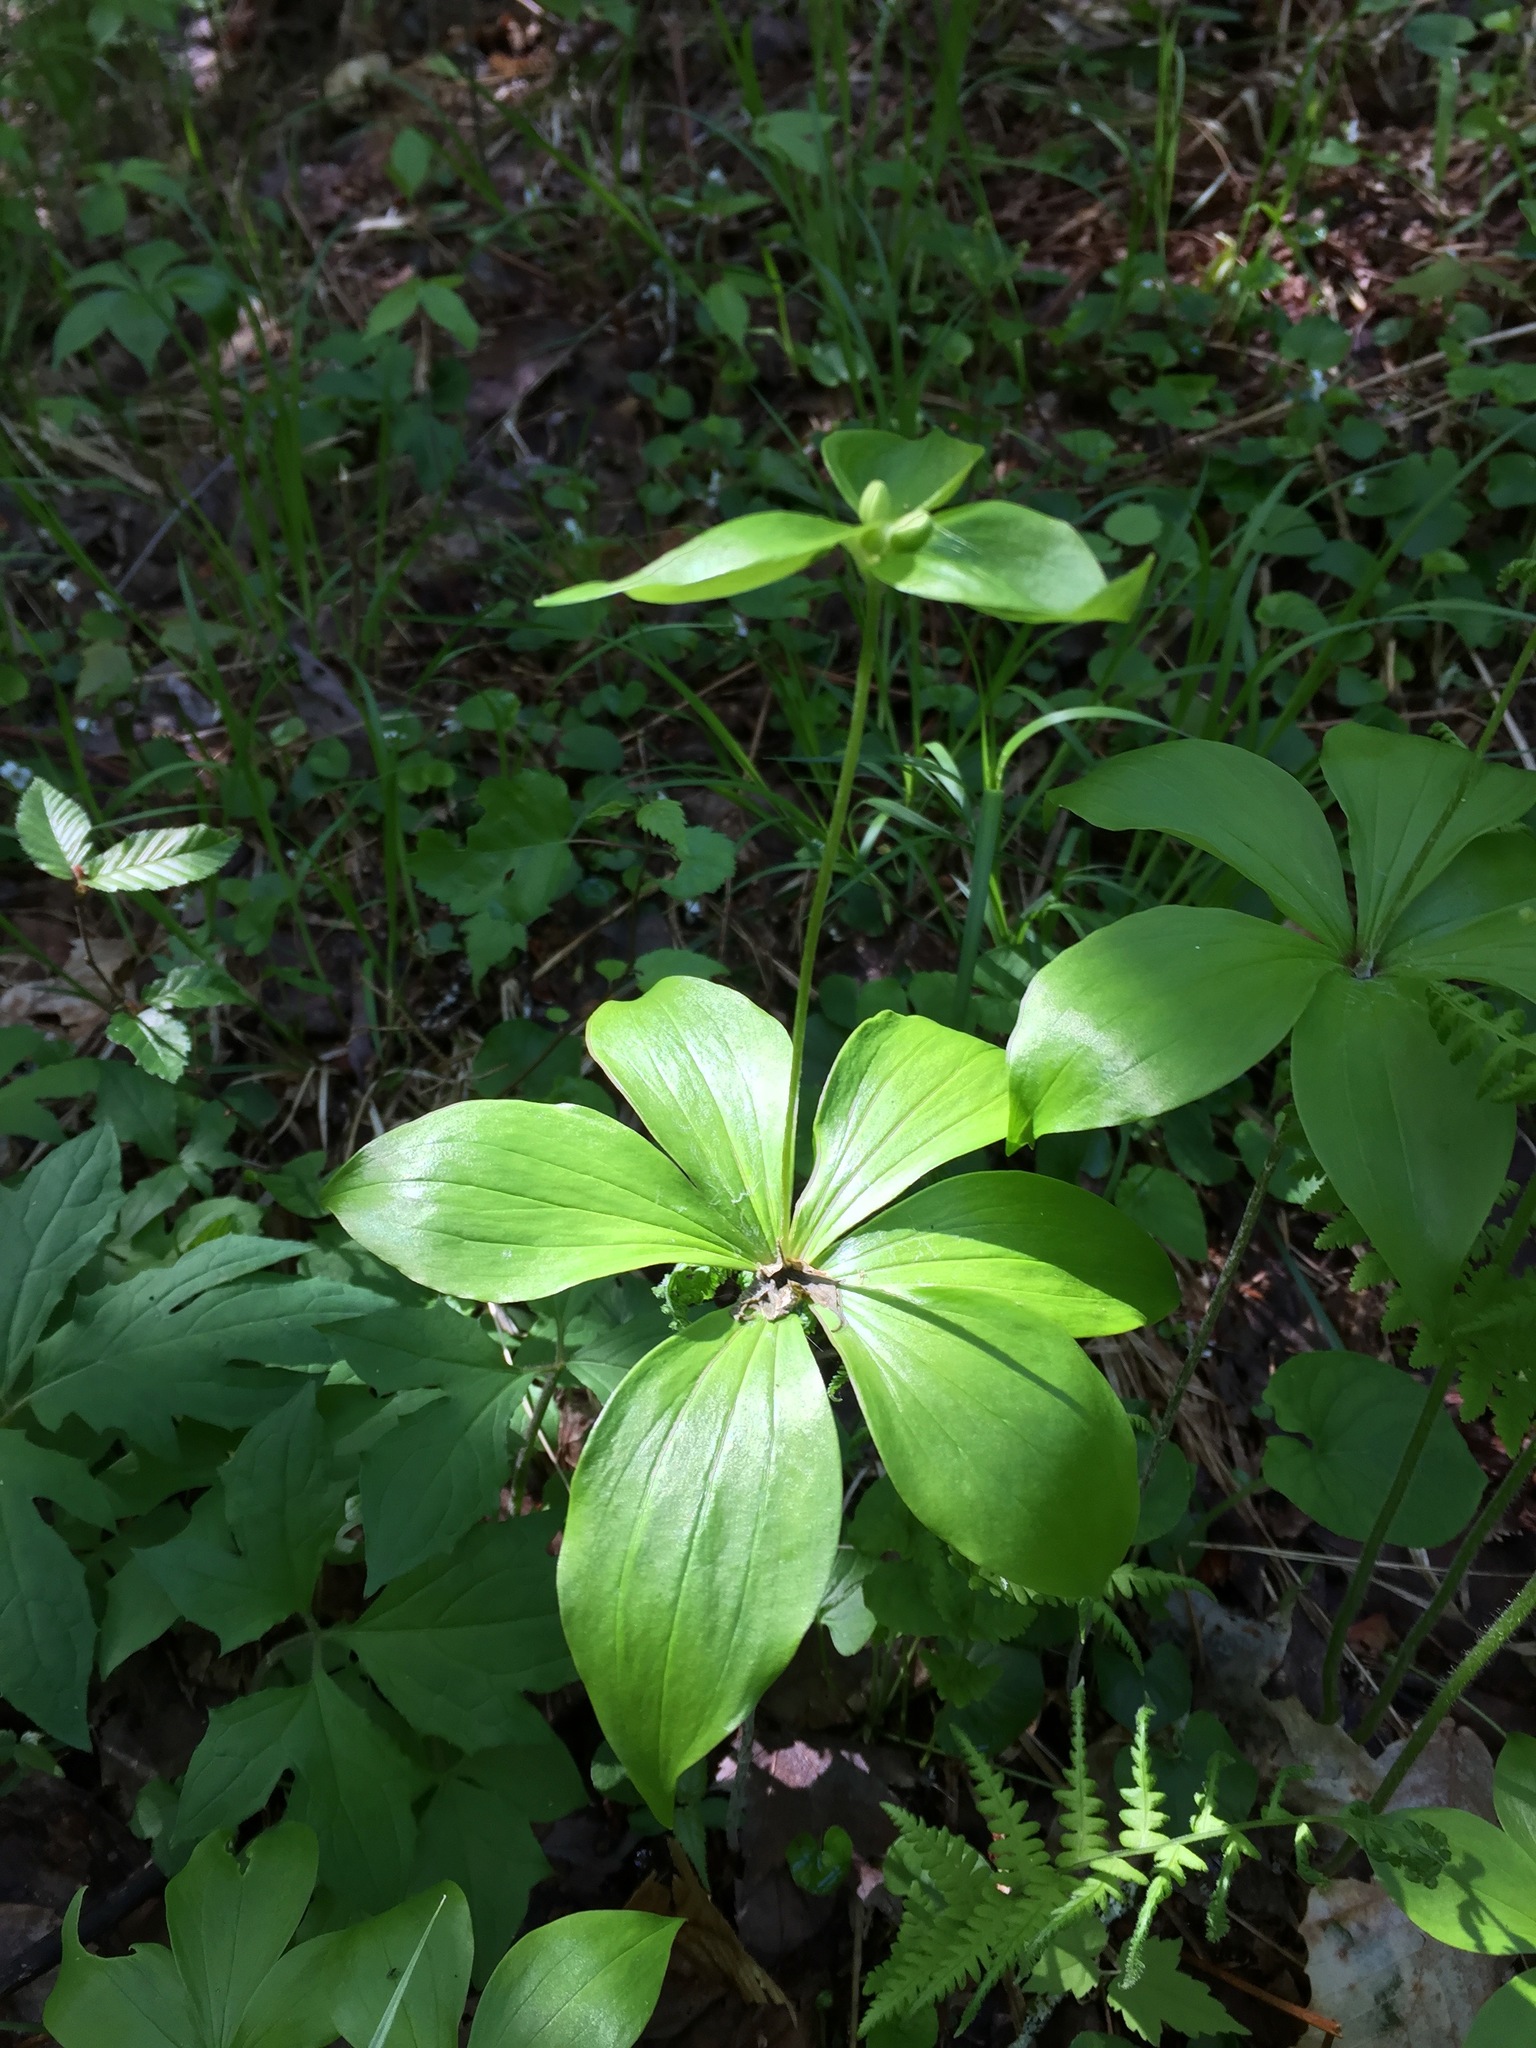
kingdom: Plantae
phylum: Tracheophyta
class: Liliopsida
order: Liliales
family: Liliaceae
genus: Medeola
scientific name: Medeola virginiana
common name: Indian cucumber-root
